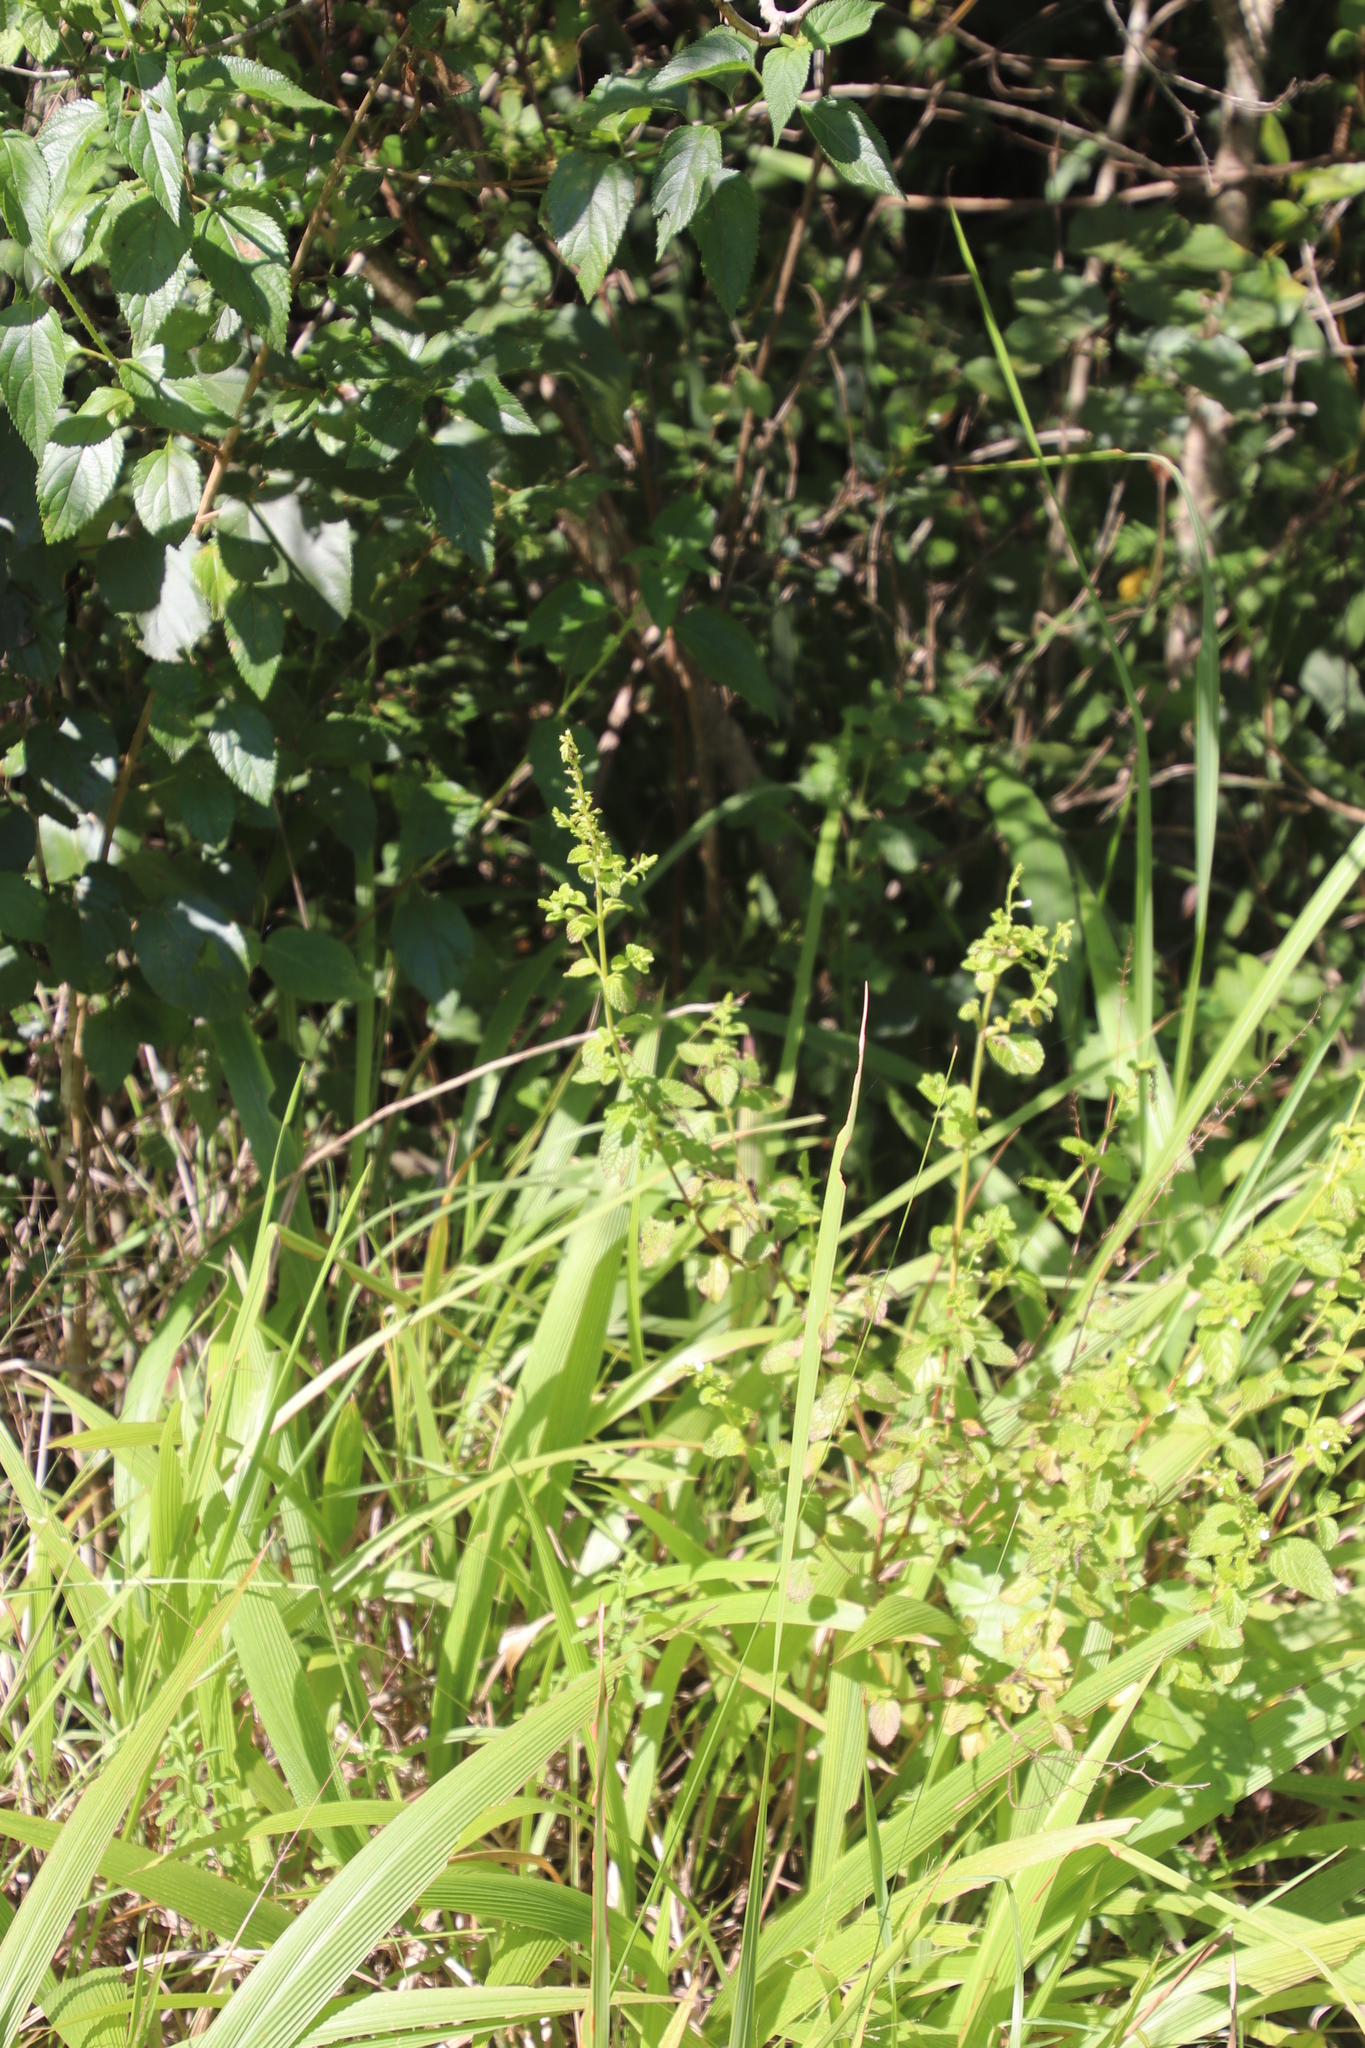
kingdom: Plantae
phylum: Tracheophyta
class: Magnoliopsida
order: Lamiales
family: Lamiaceae
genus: Endostemon
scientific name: Endostemon obtusifolius
